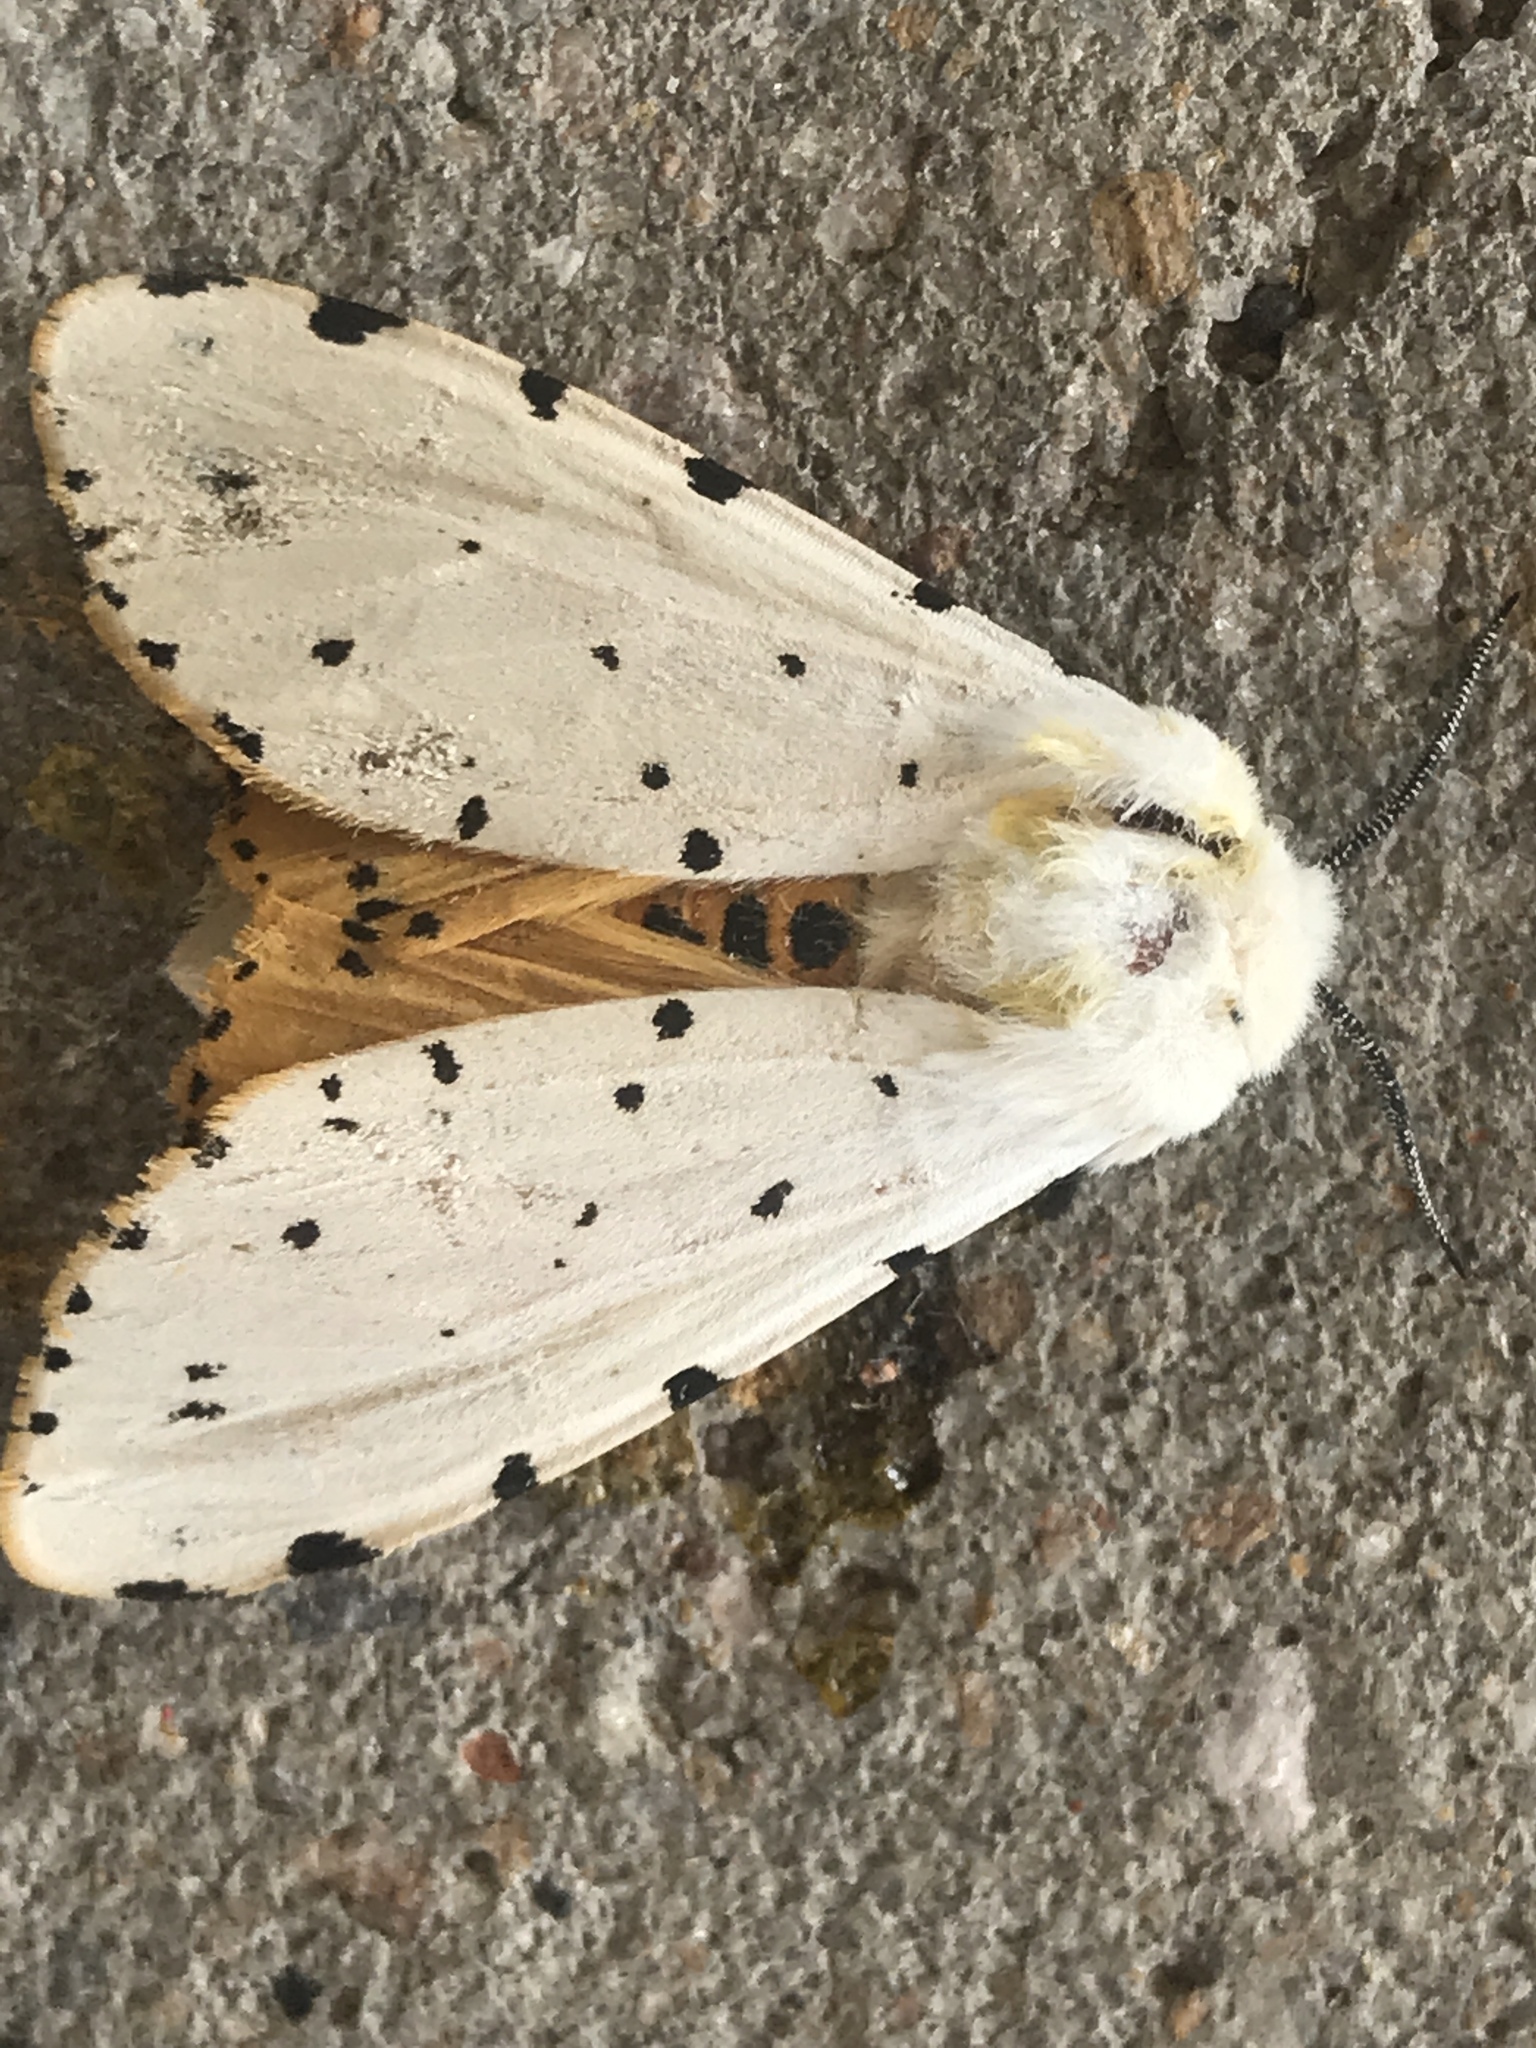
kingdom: Animalia
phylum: Arthropoda
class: Insecta
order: Lepidoptera
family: Erebidae
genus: Estigmene
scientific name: Estigmene acrea
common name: Salt marsh moth
